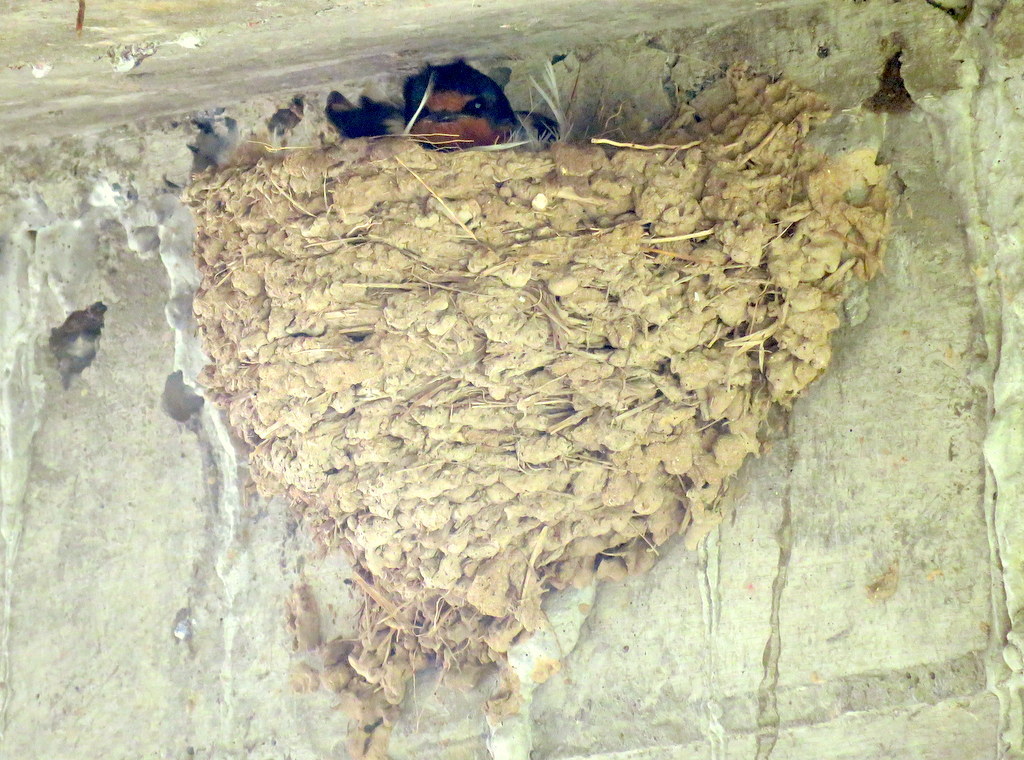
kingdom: Animalia
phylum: Chordata
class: Aves
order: Passeriformes
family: Hirundinidae
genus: Hirundo
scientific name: Hirundo rustica
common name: Barn swallow
